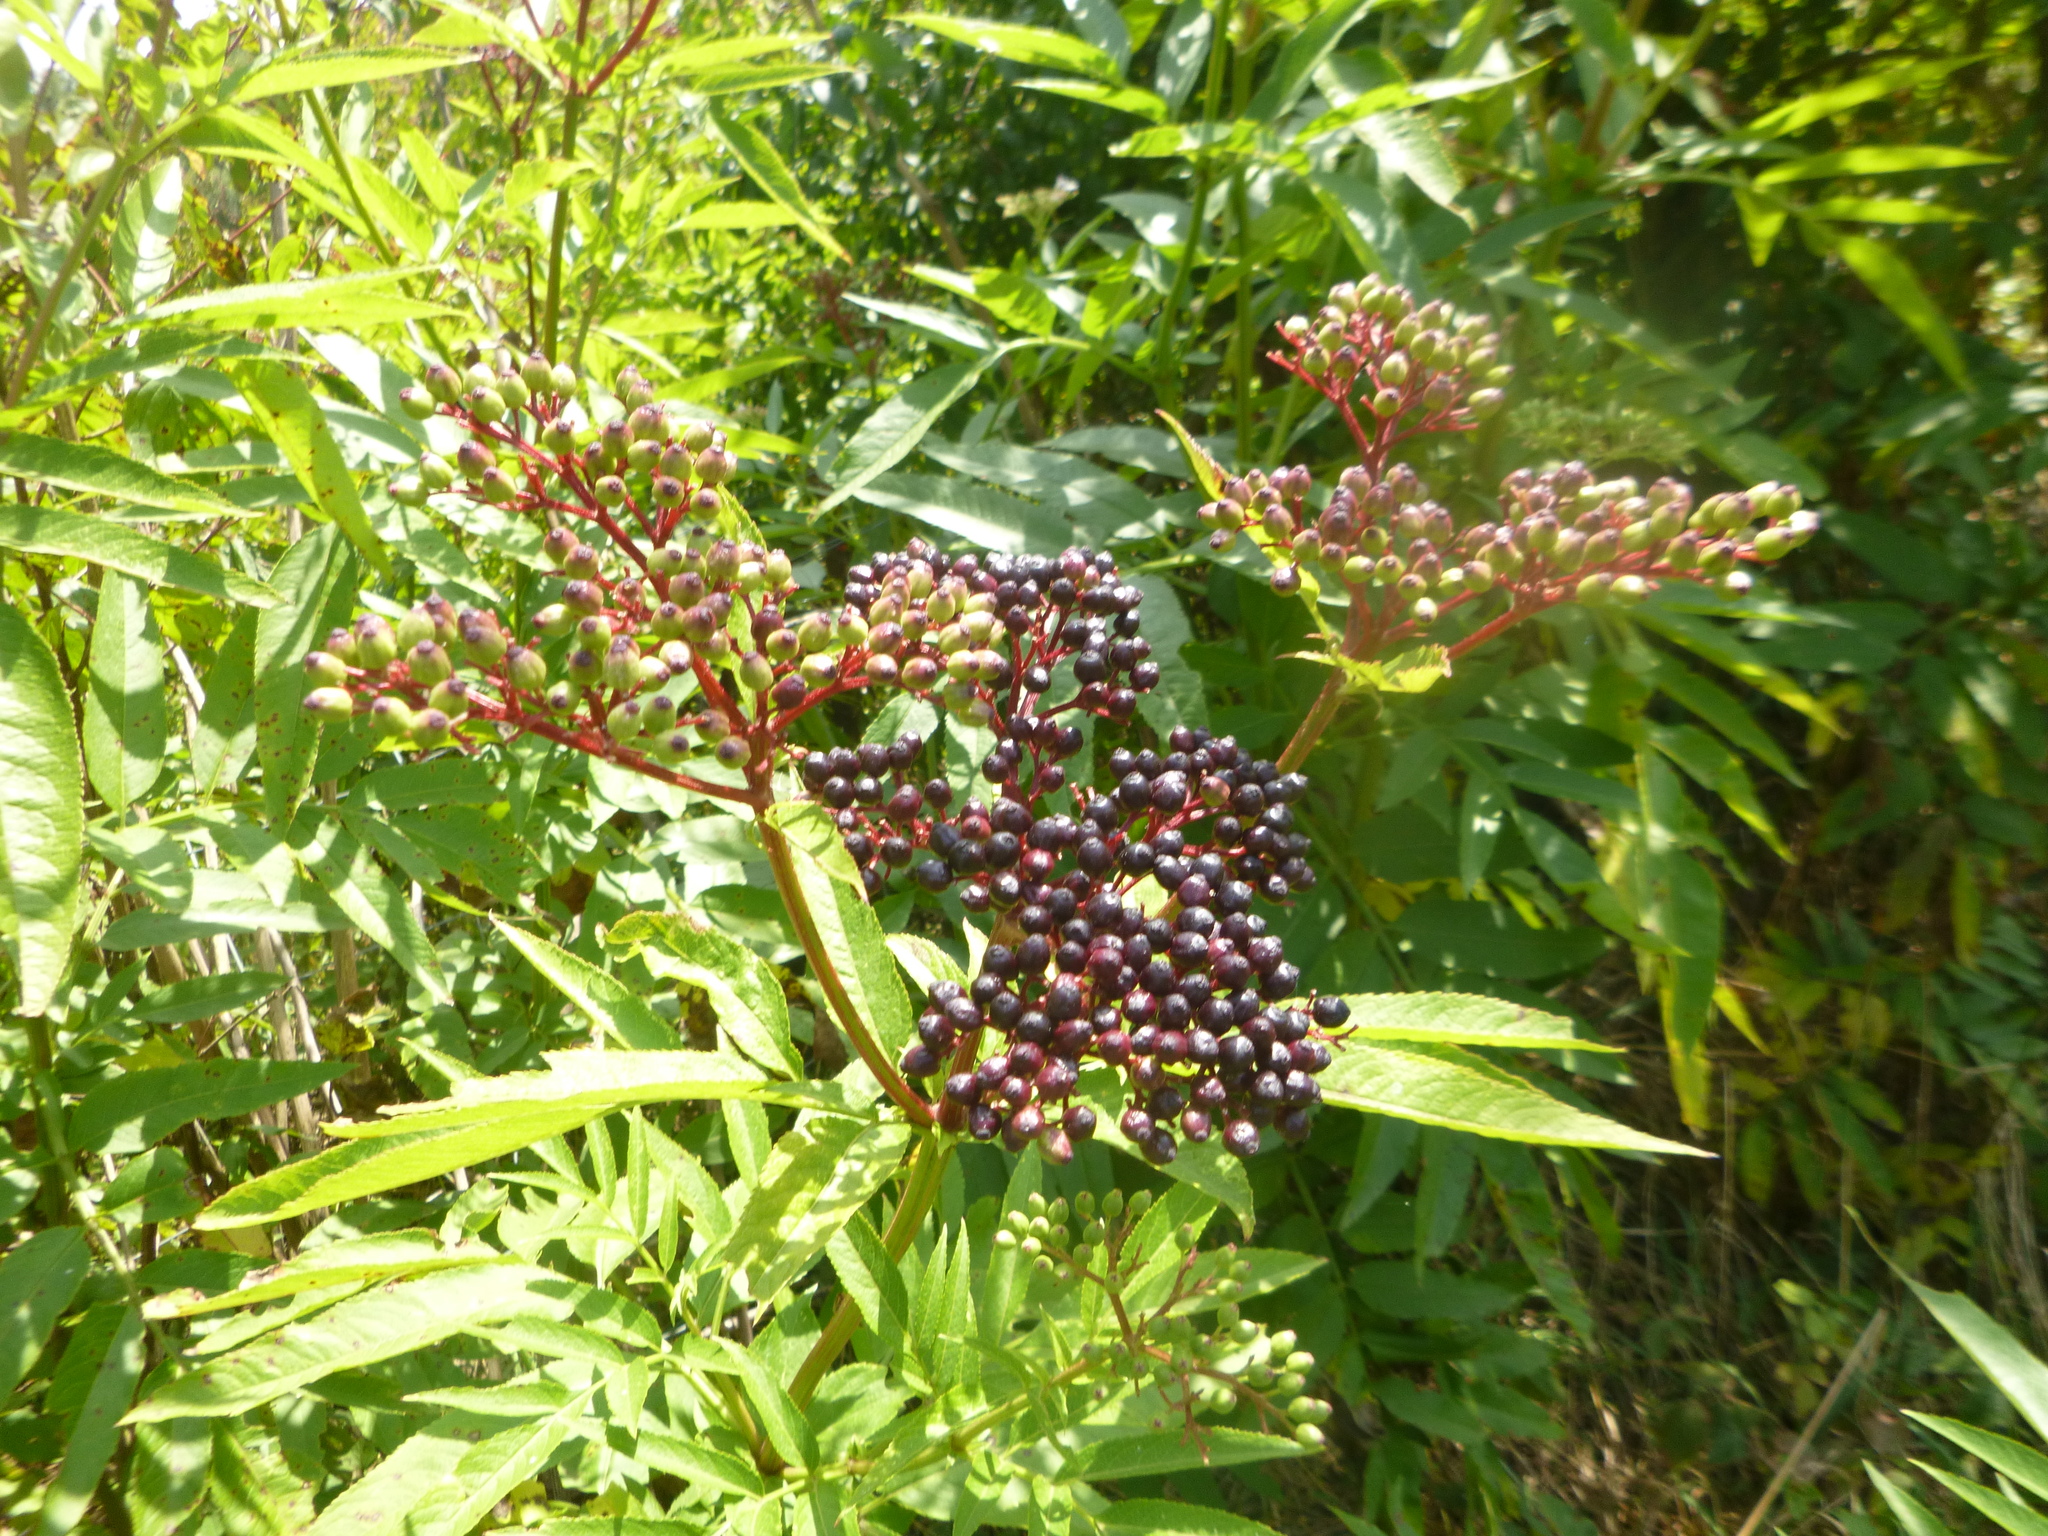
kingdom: Plantae
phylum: Tracheophyta
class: Magnoliopsida
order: Dipsacales
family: Viburnaceae
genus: Sambucus
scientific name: Sambucus ebulus
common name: Dwarf elder
